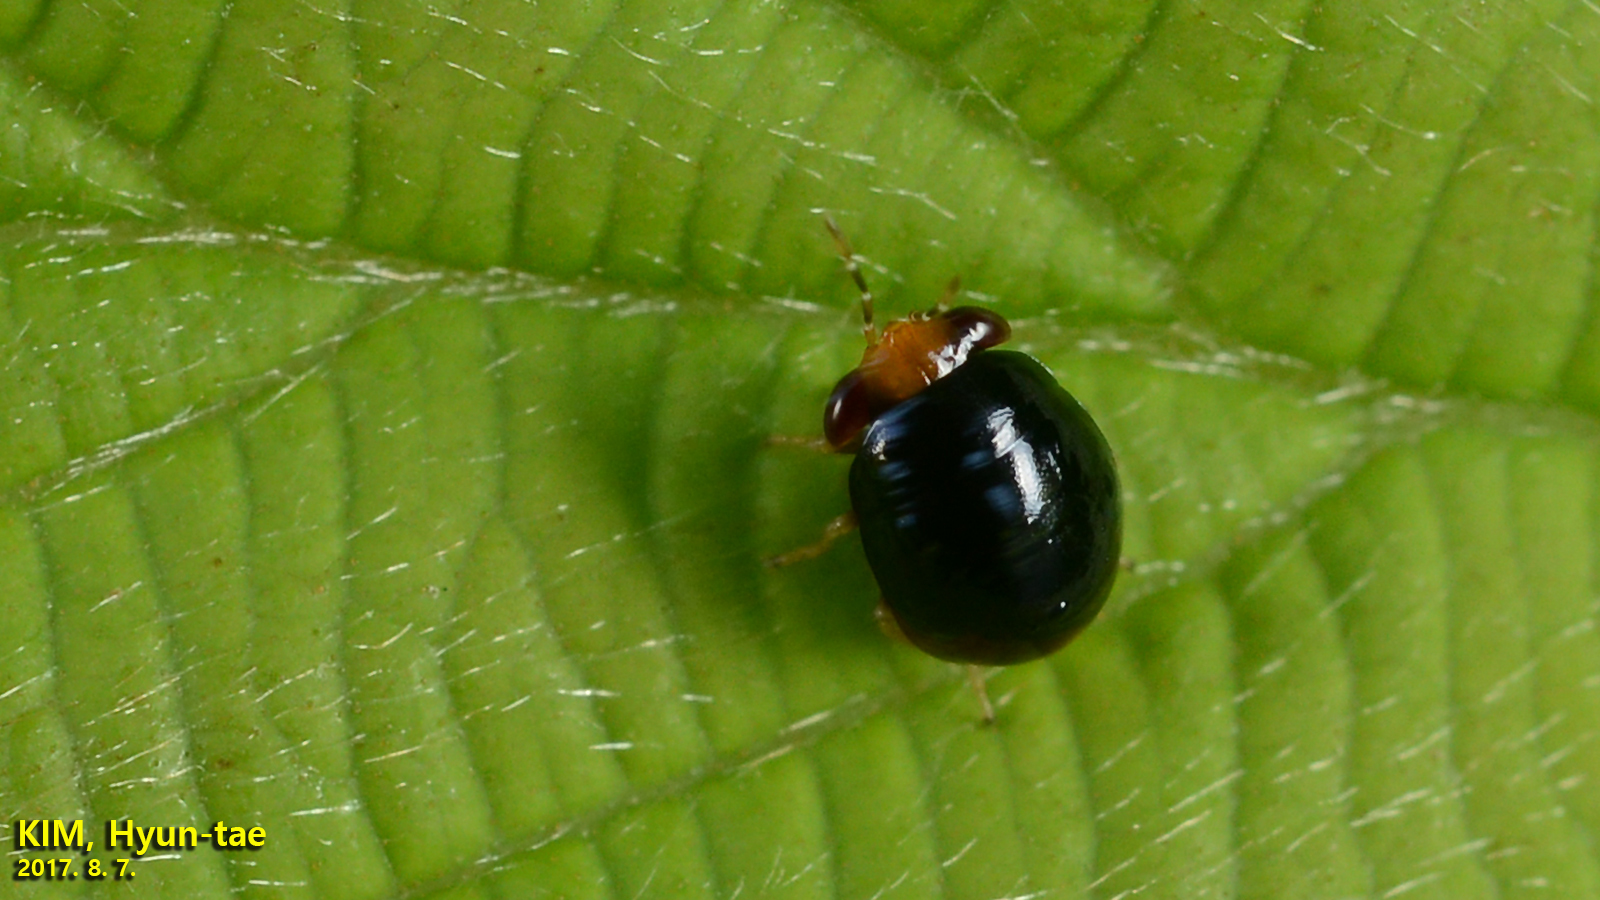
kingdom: Animalia
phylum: Arthropoda
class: Insecta
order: Hemiptera
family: Geocoridae
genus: Geocoris
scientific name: Geocoris varius
